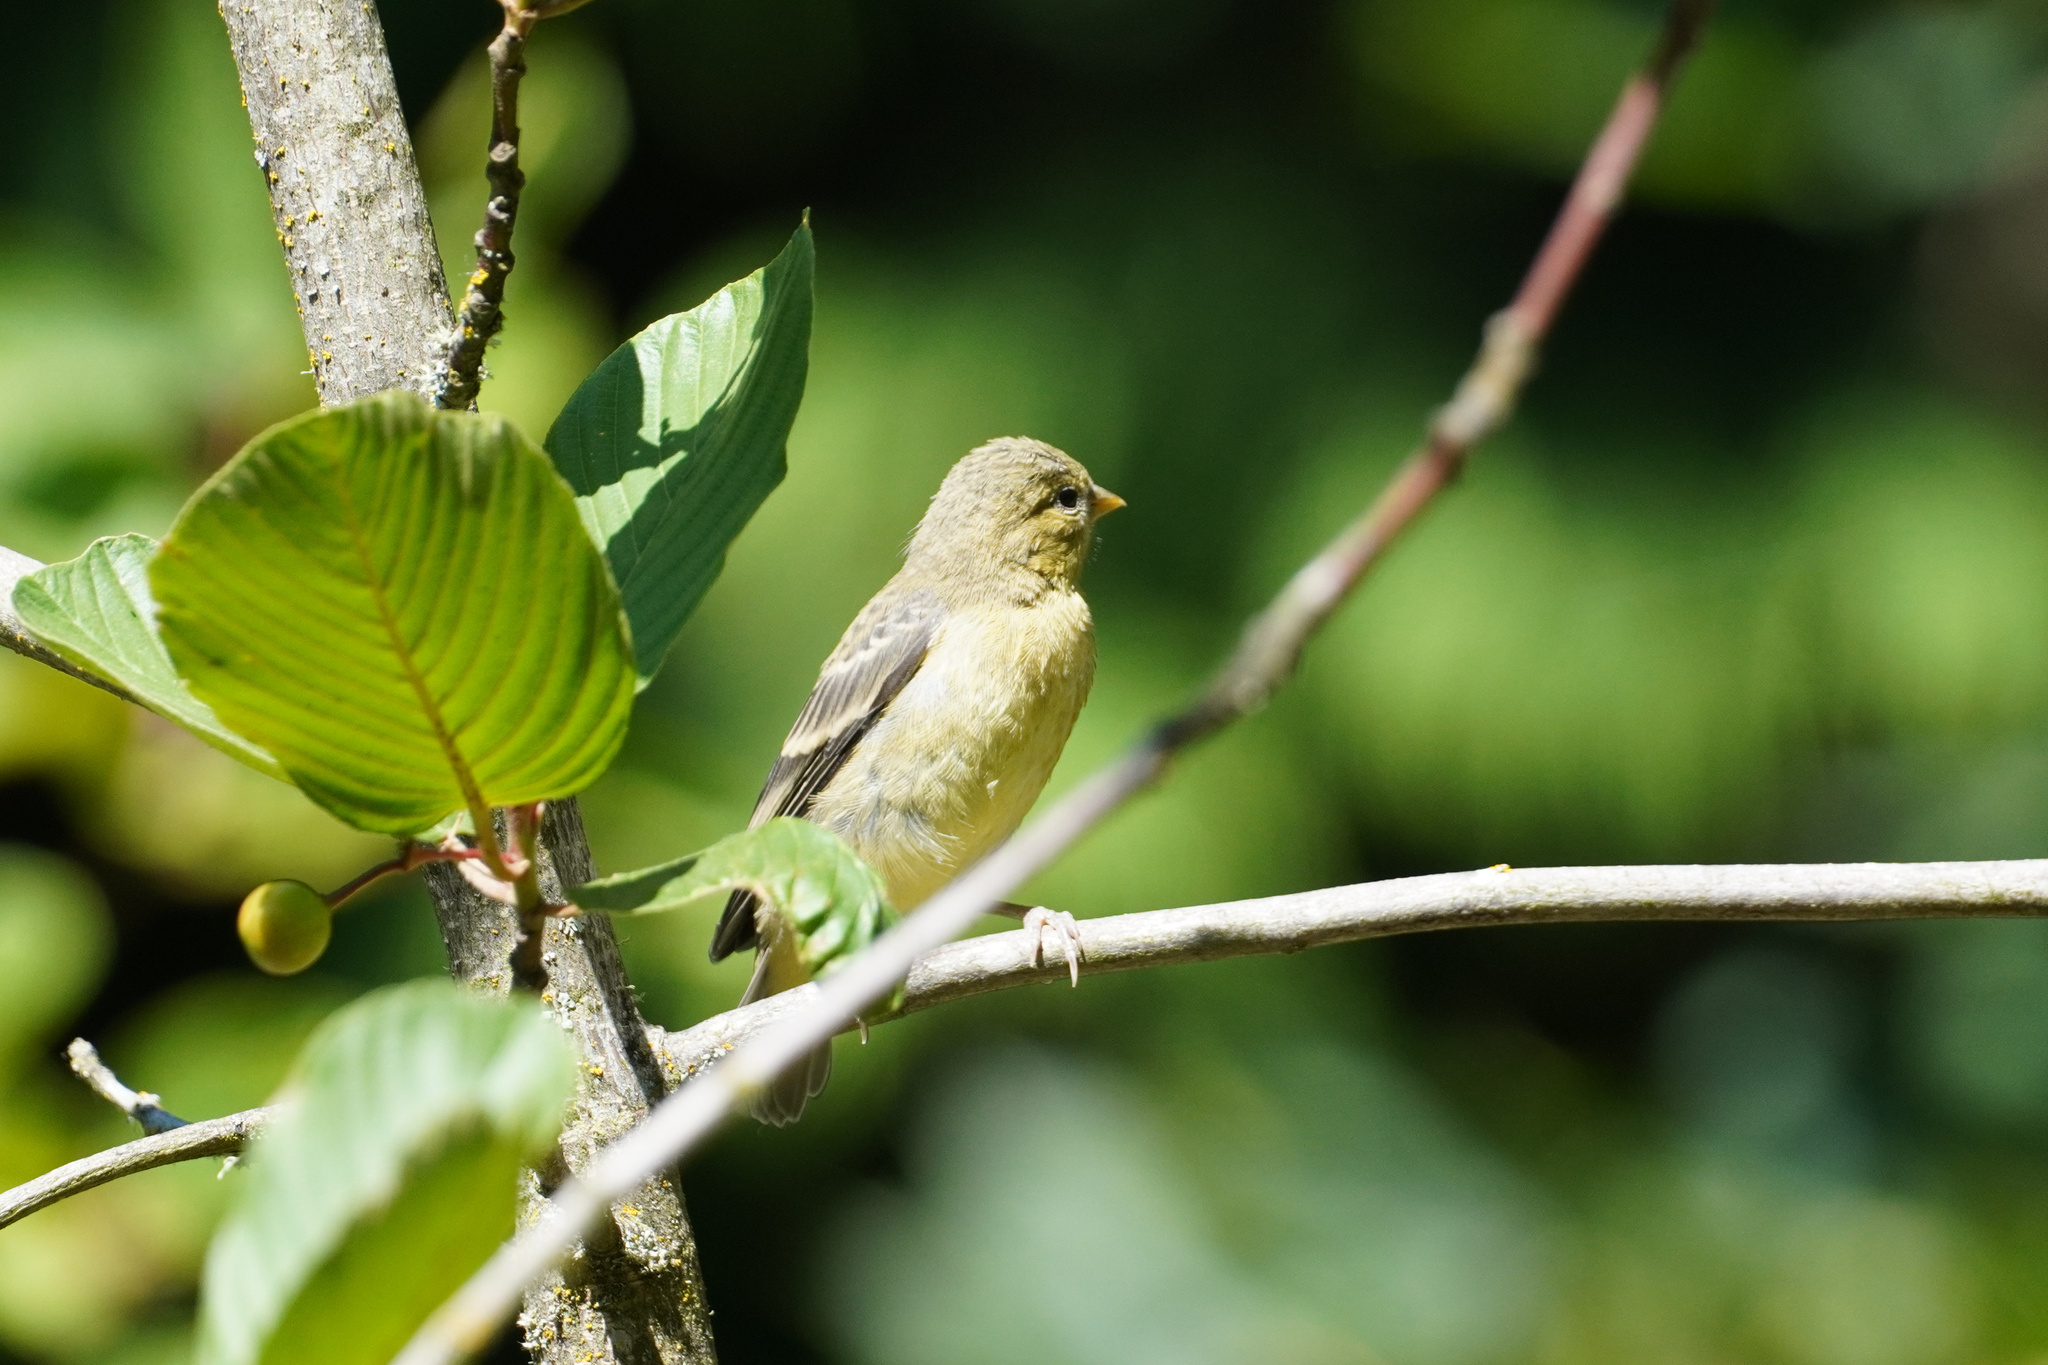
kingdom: Animalia
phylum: Chordata
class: Aves
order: Passeriformes
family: Fringillidae
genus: Spinus
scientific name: Spinus psaltria
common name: Lesser goldfinch
